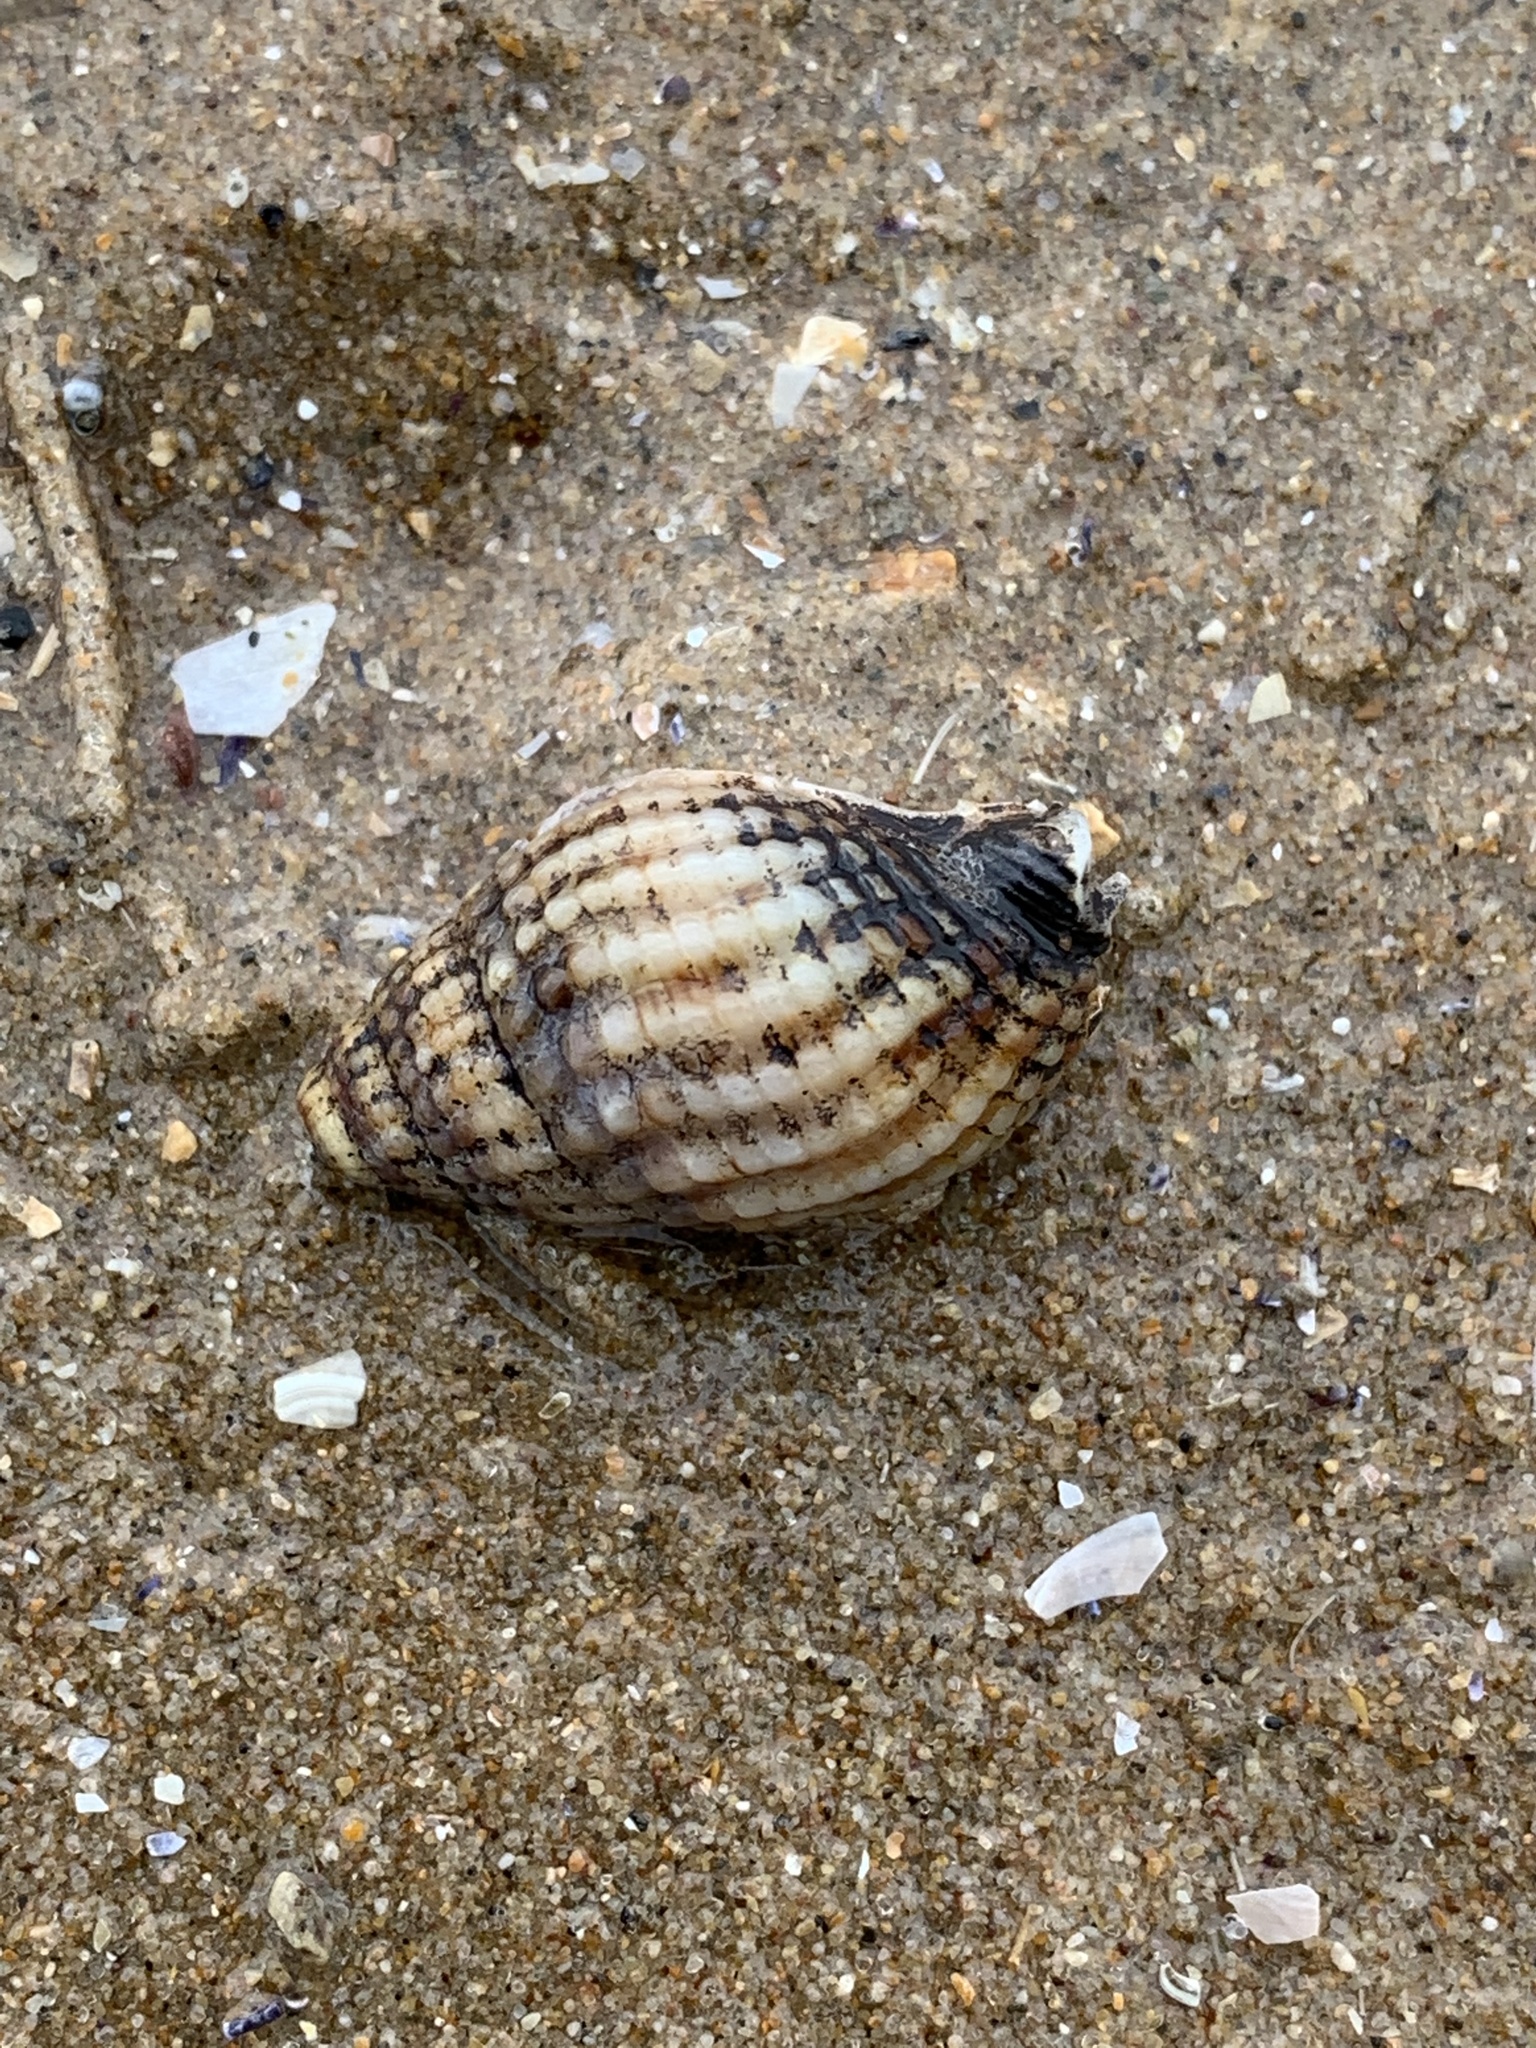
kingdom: Animalia
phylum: Mollusca
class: Gastropoda
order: Neogastropoda
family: Nassariidae
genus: Tritia
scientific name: Tritia
